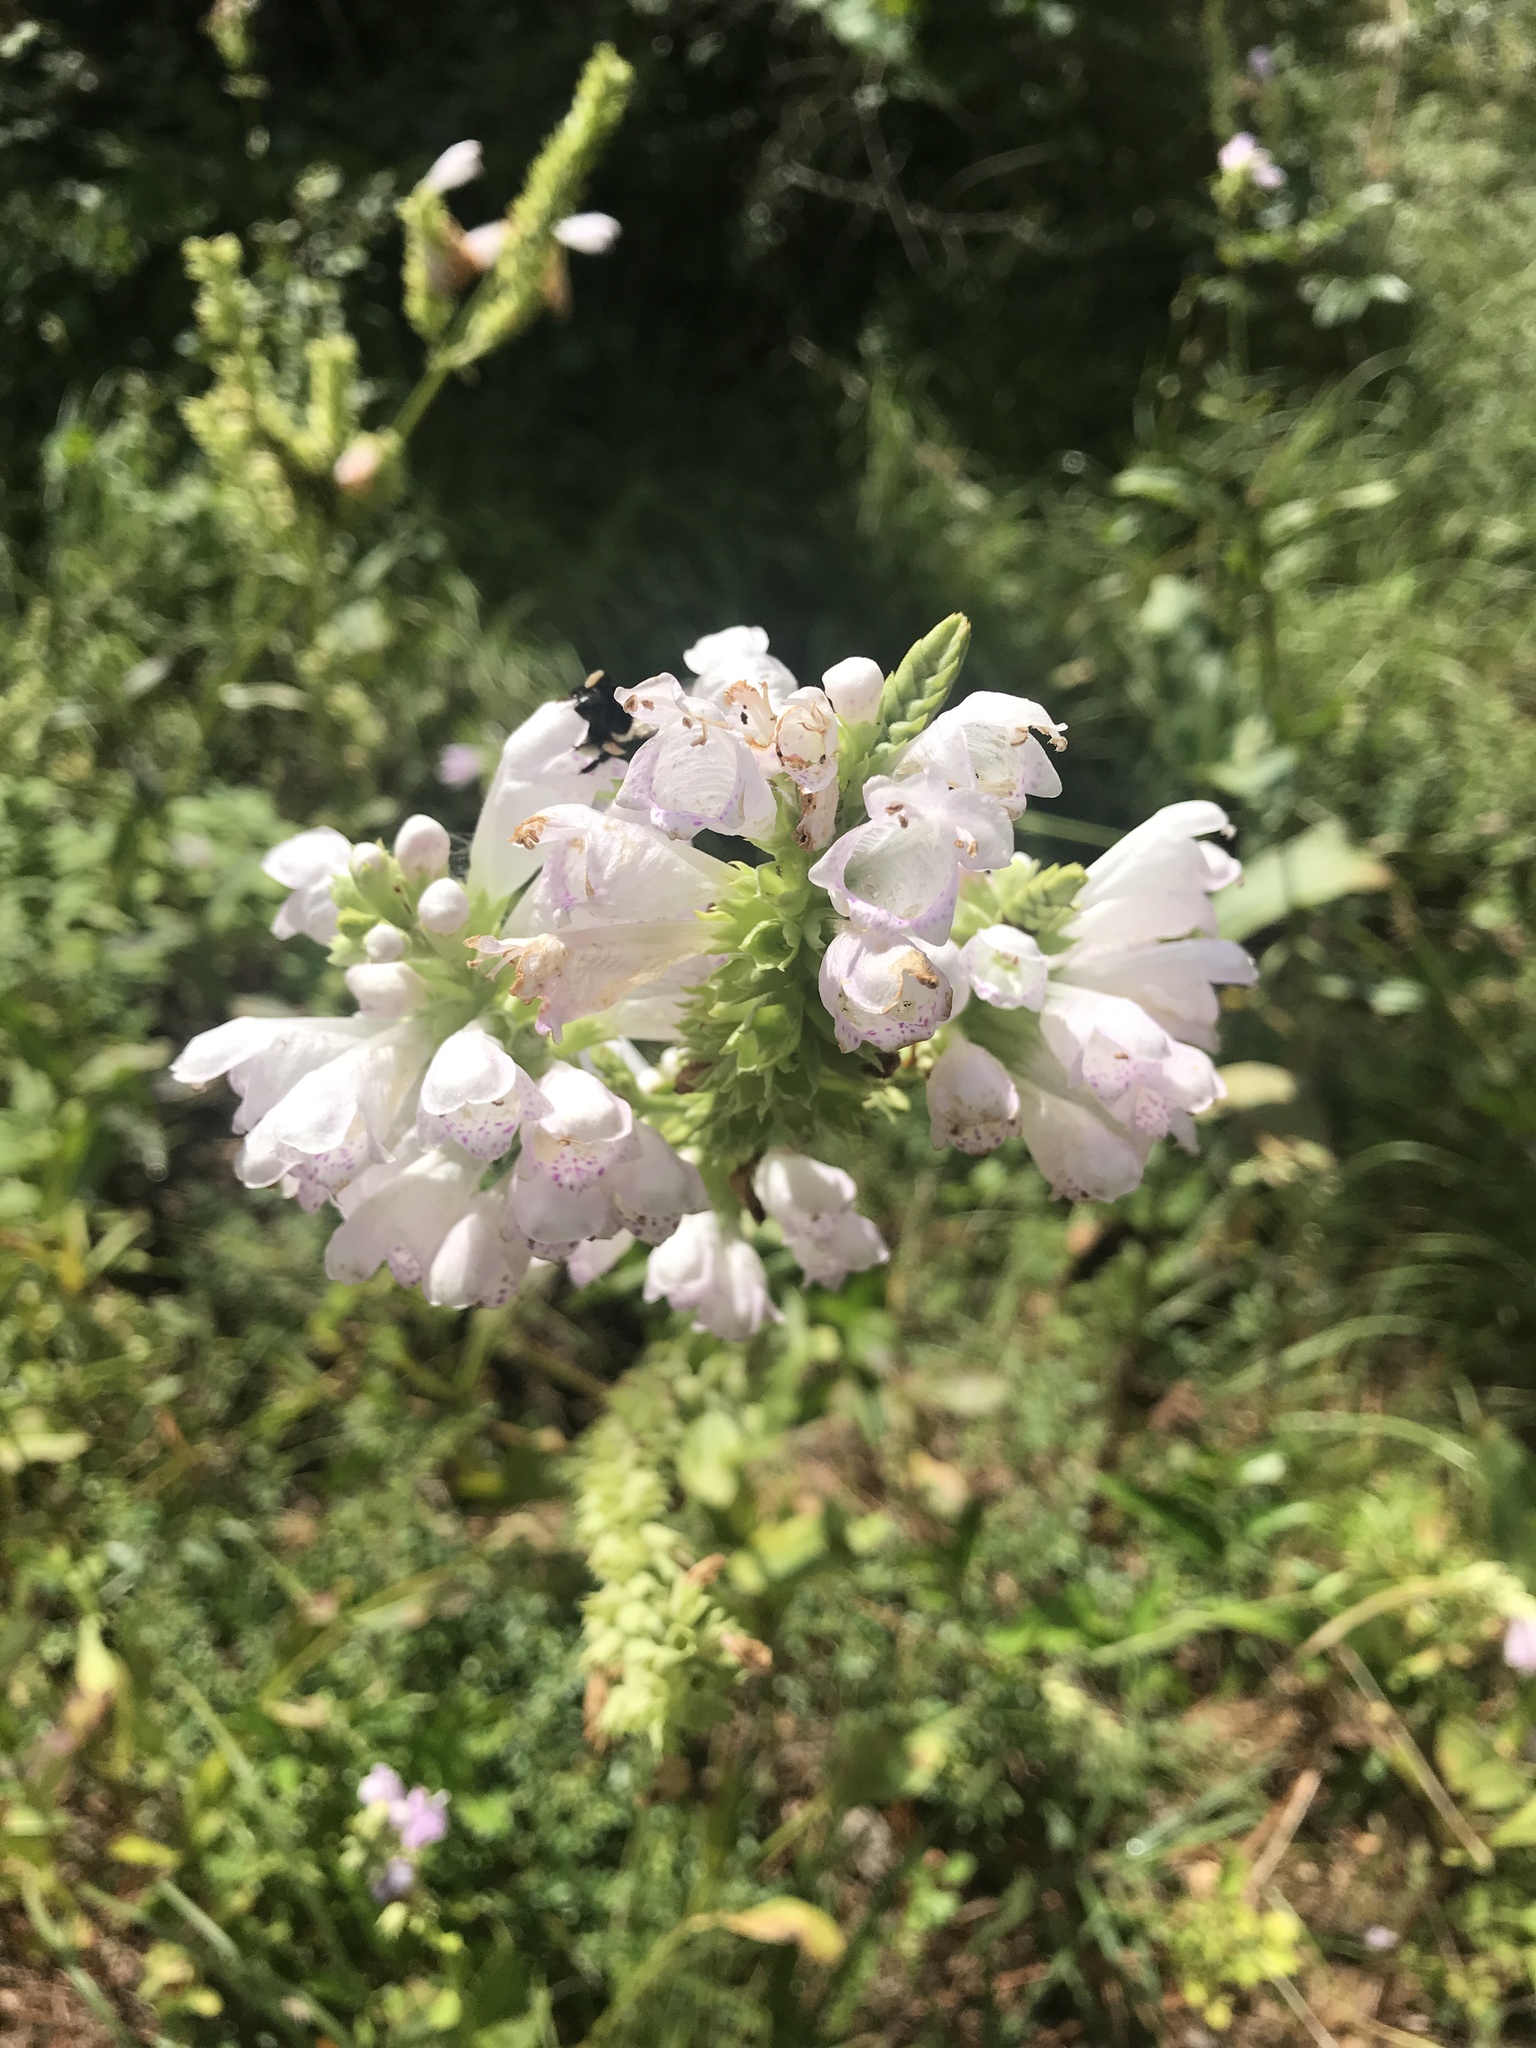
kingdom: Plantae
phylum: Tracheophyta
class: Magnoliopsida
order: Lamiales
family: Lamiaceae
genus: Physostegia
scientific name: Physostegia virginiana
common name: Obedient-plant
